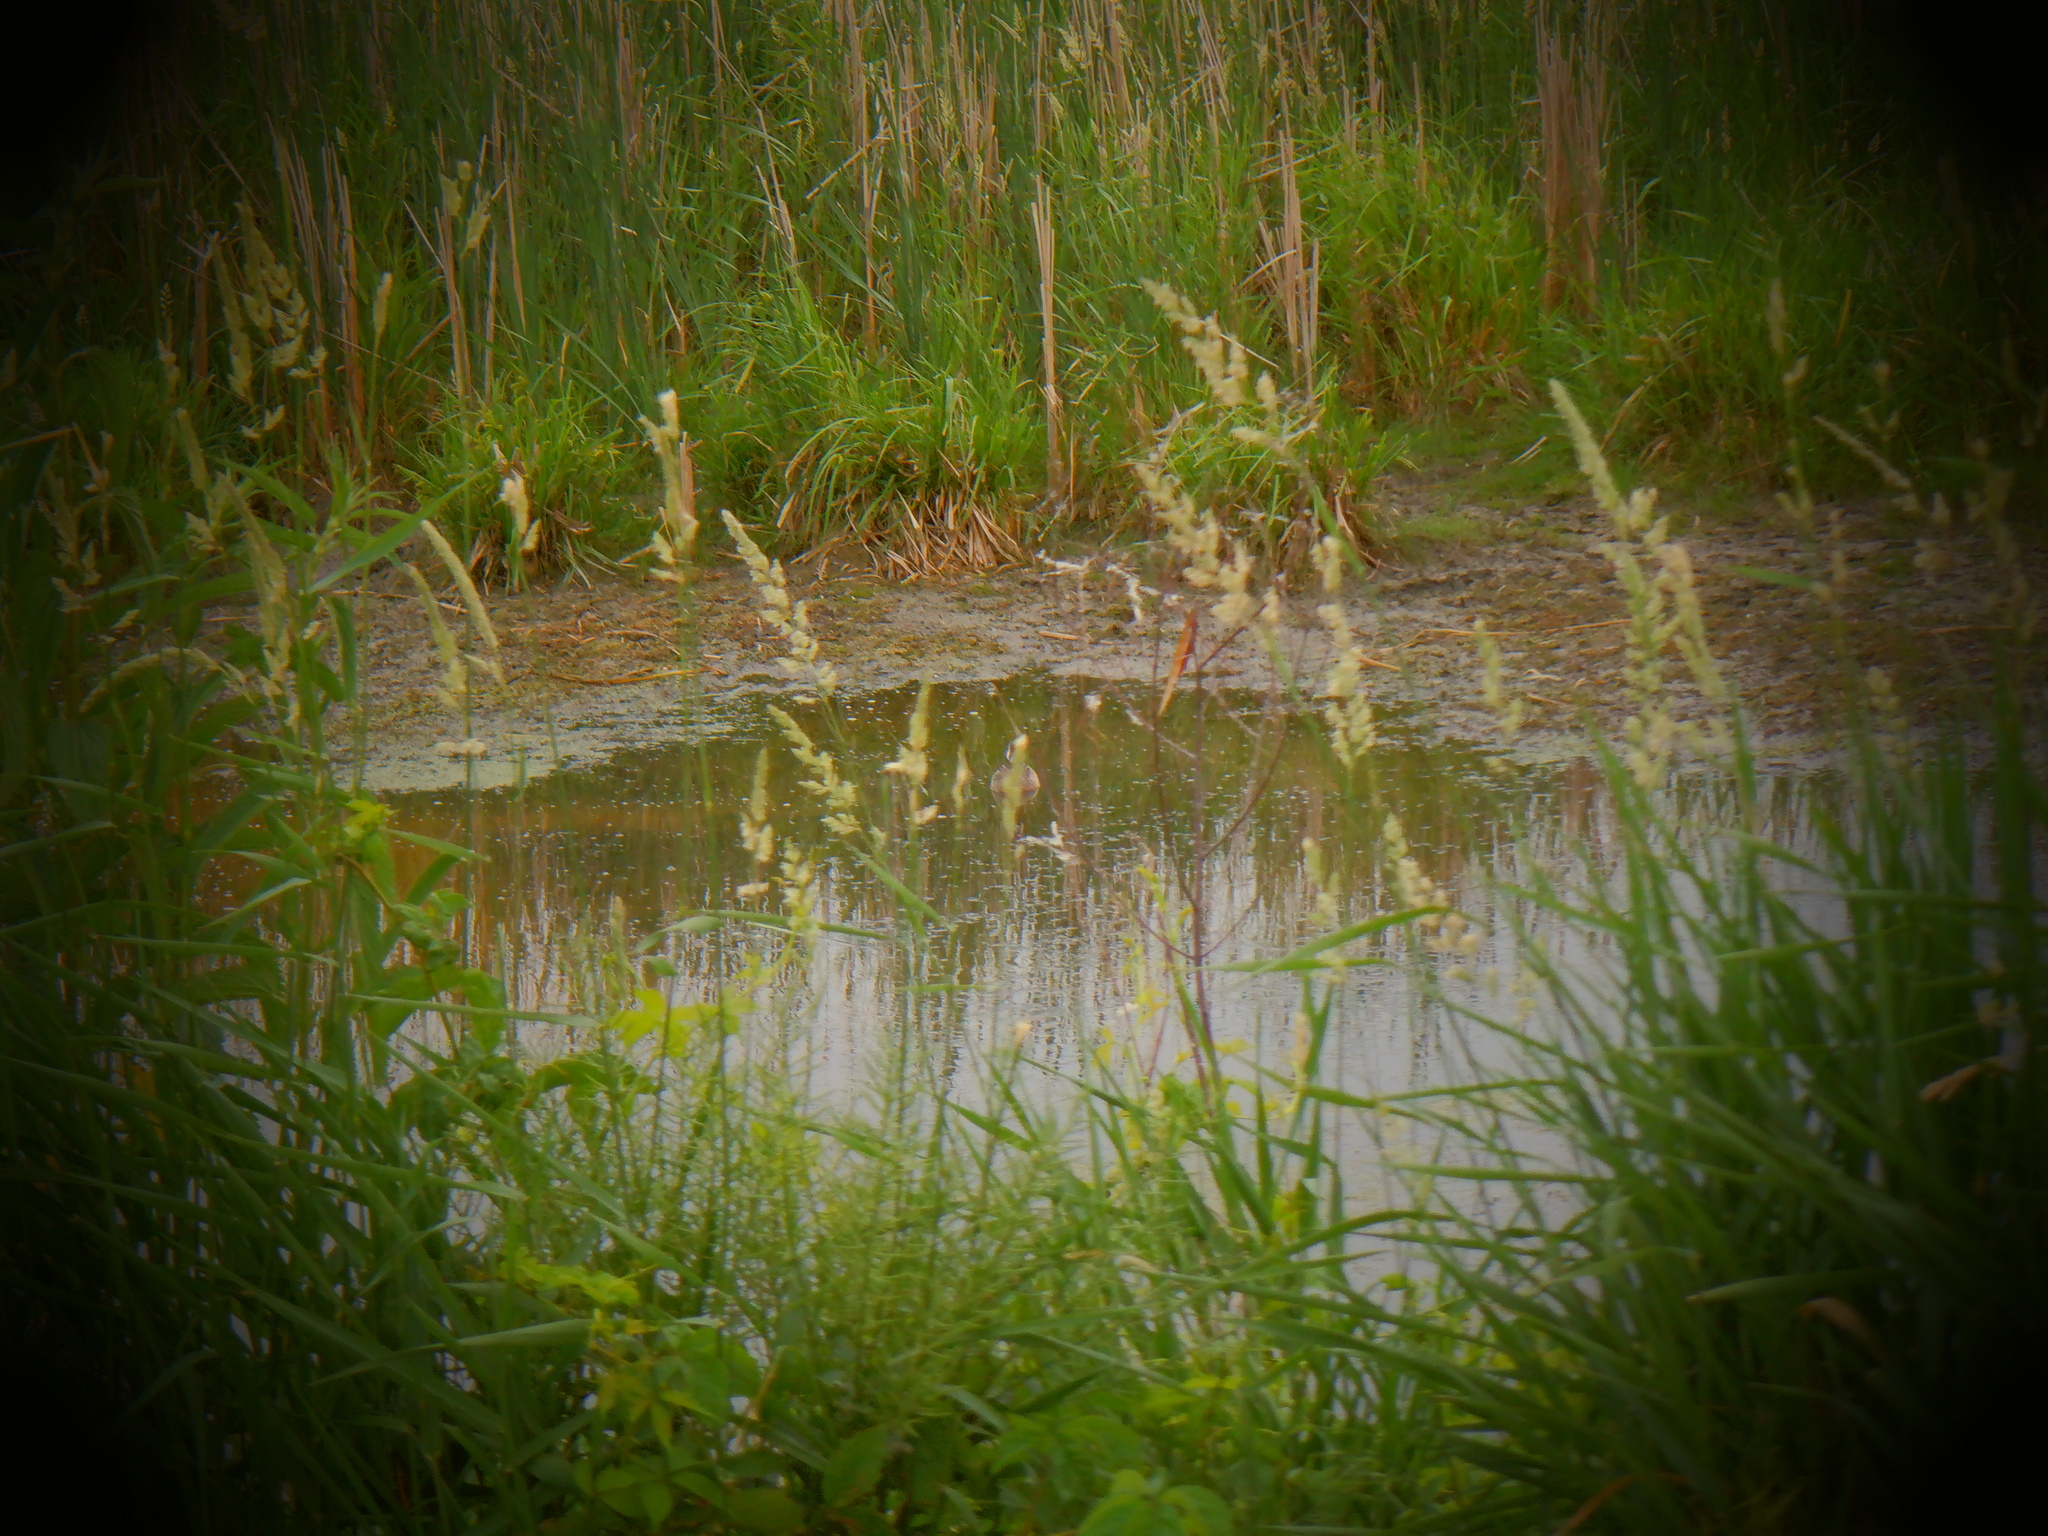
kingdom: Animalia
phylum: Chordata
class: Aves
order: Anseriformes
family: Anatidae
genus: Spatula
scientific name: Spatula discors
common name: Blue-winged teal
